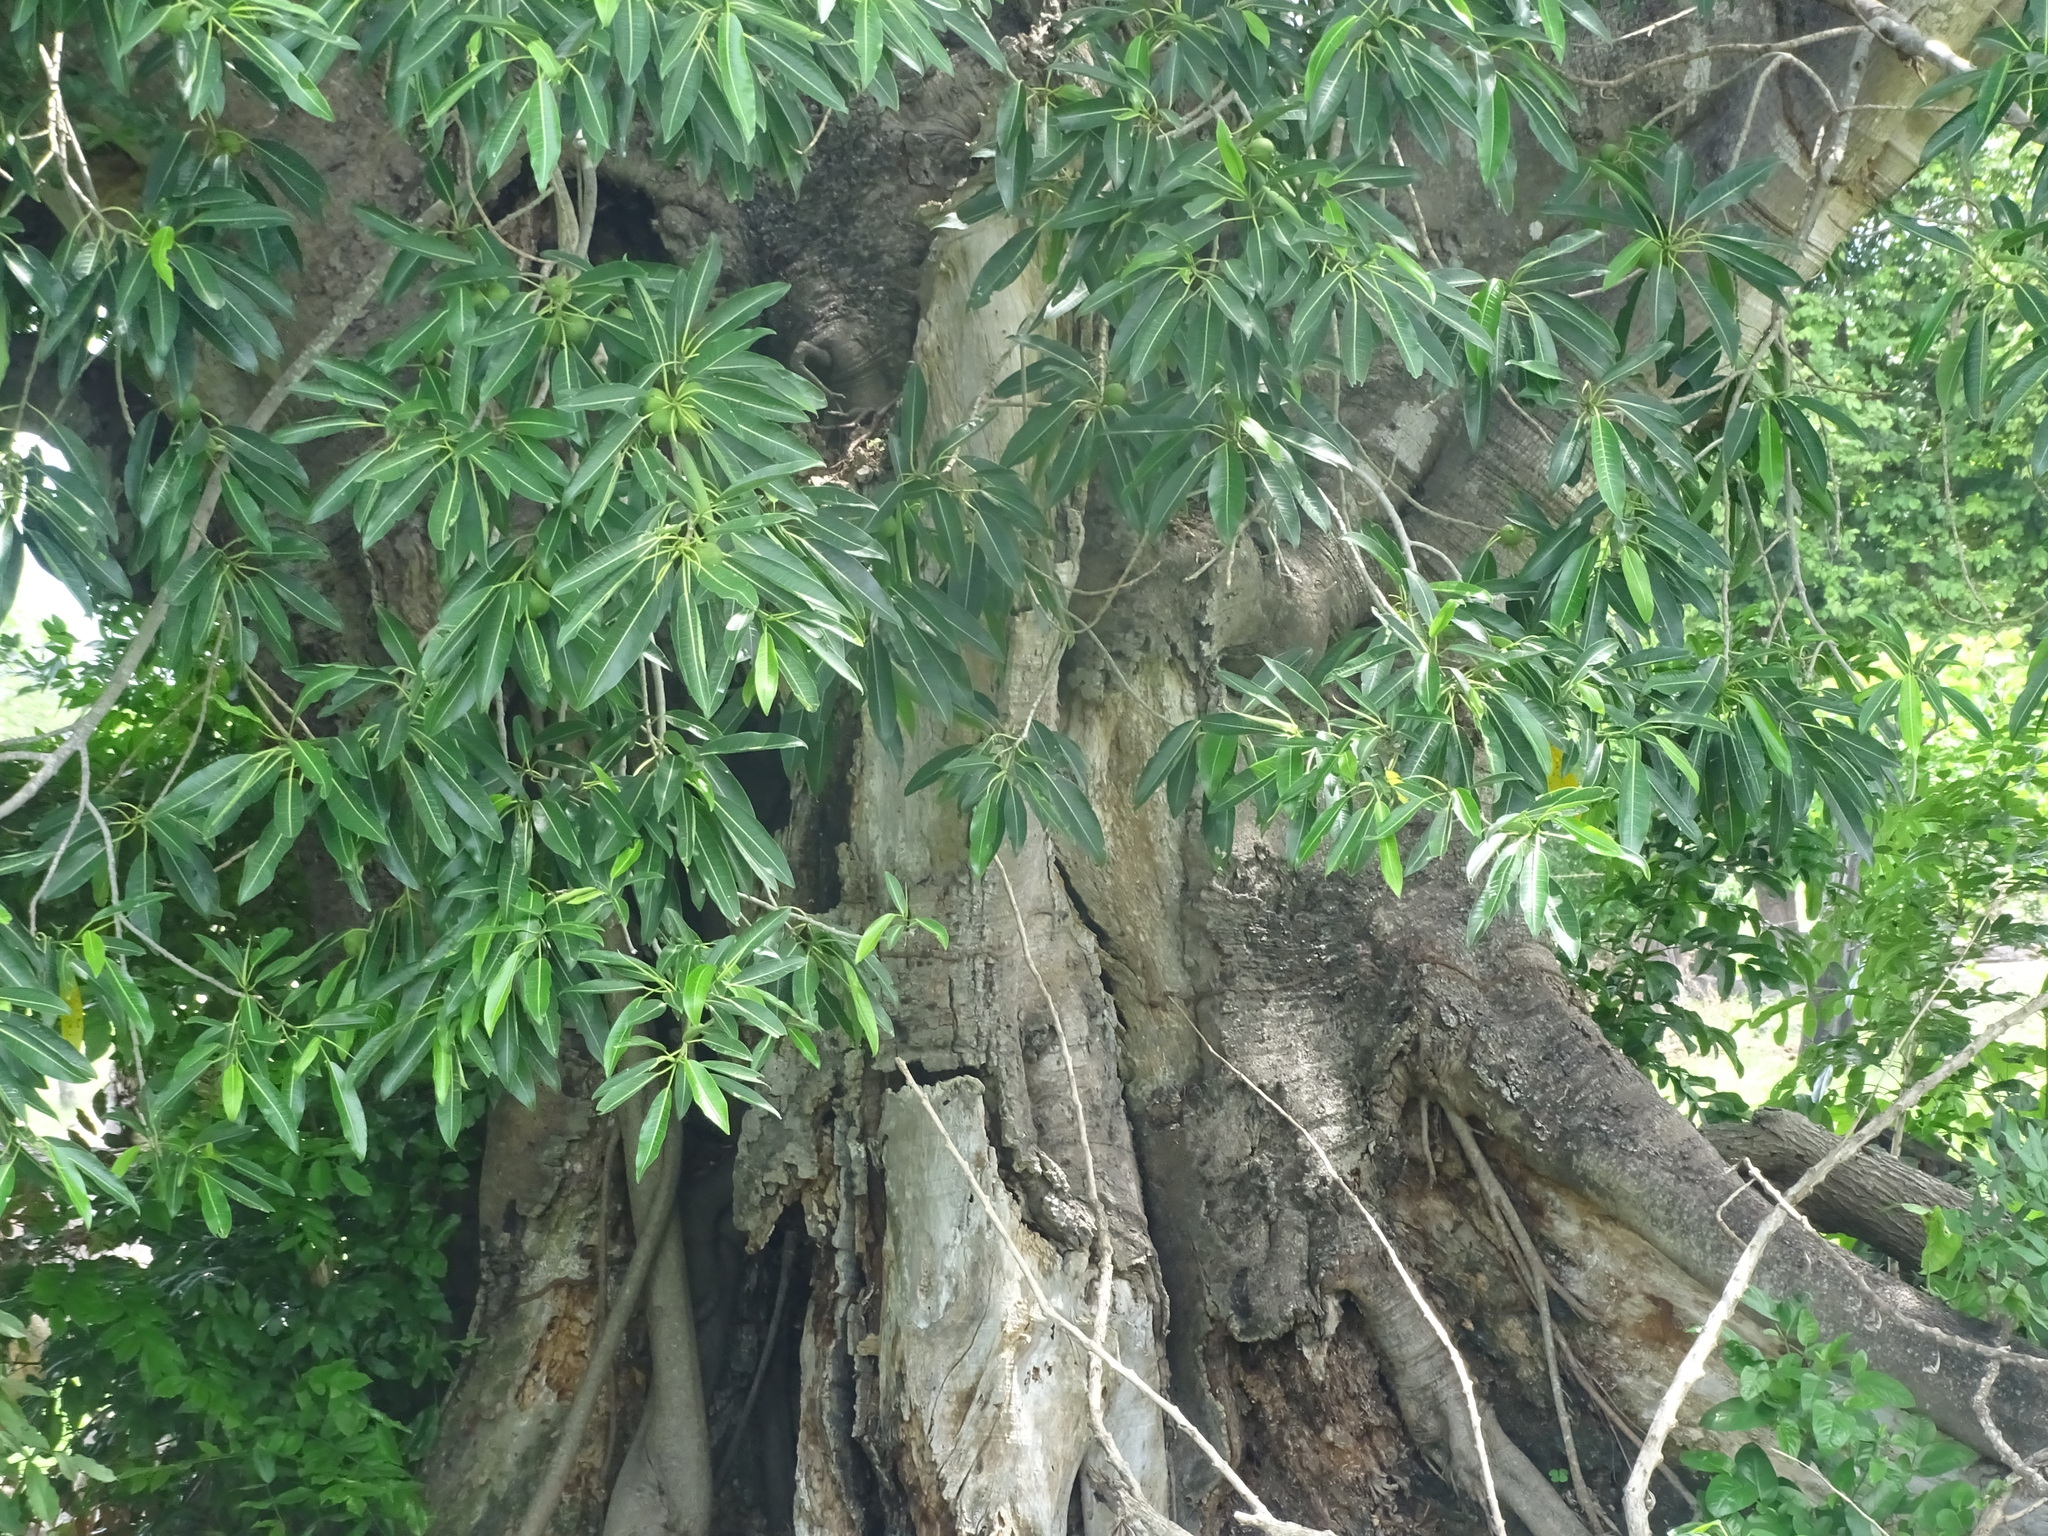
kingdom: Plantae
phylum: Tracheophyta
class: Magnoliopsida
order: Rosales
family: Moraceae
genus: Ficus
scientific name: Ficus insipida
